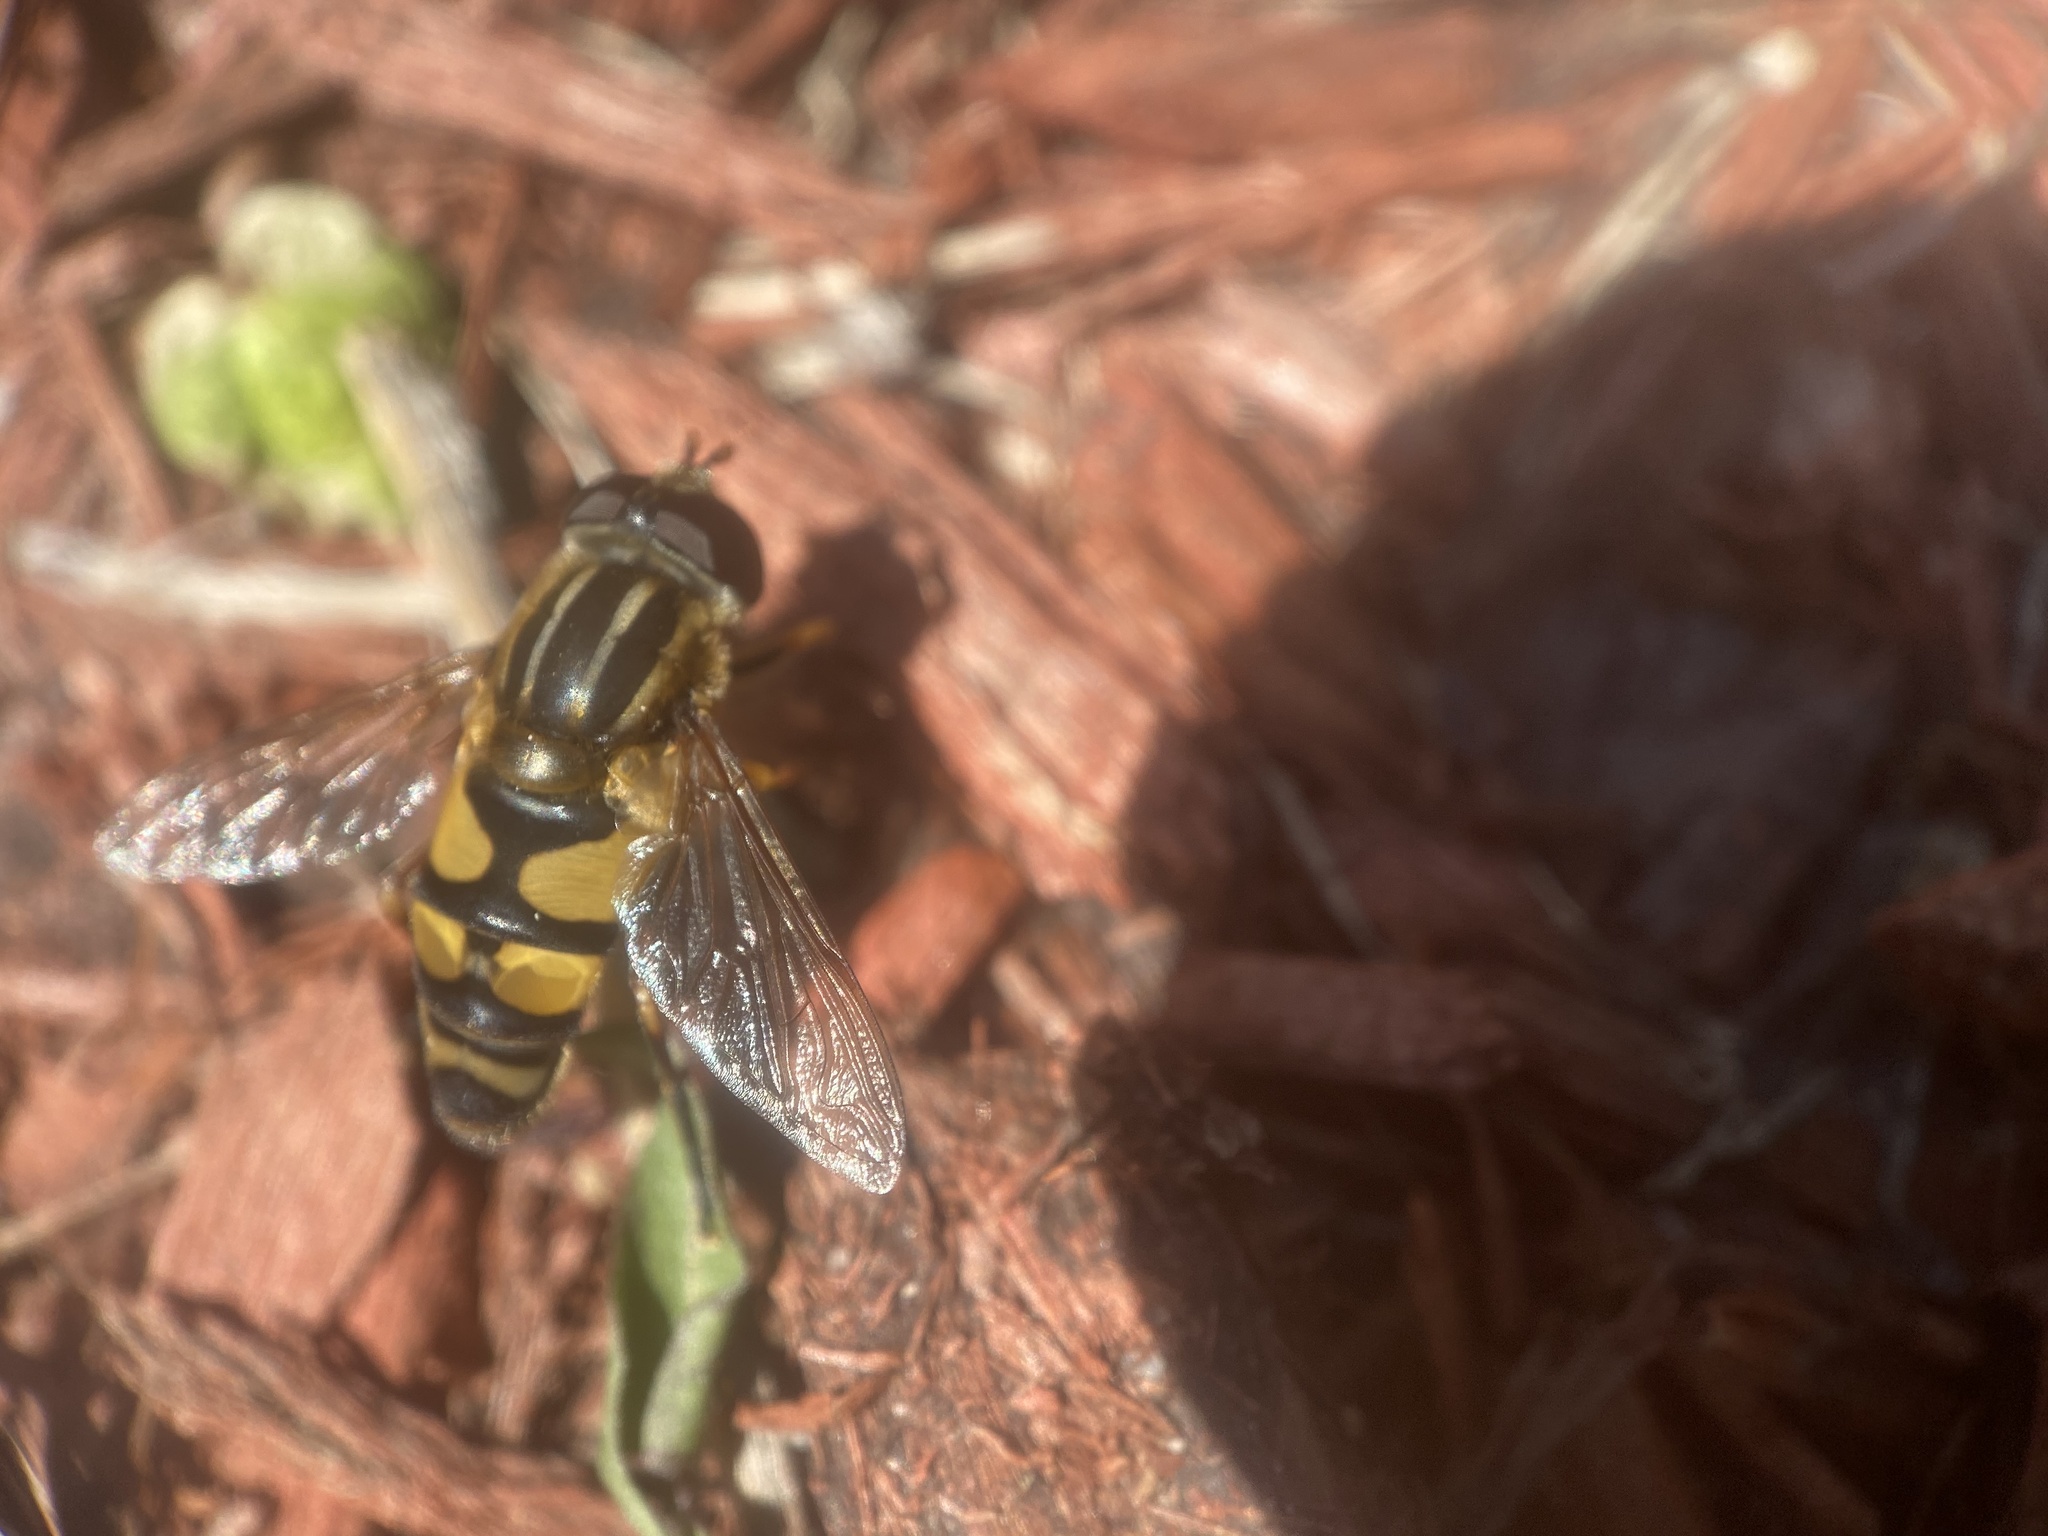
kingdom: Animalia
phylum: Arthropoda
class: Insecta
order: Diptera
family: Syrphidae
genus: Helophilus
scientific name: Helophilus fasciatus
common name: Narrow-headed marsh fly
